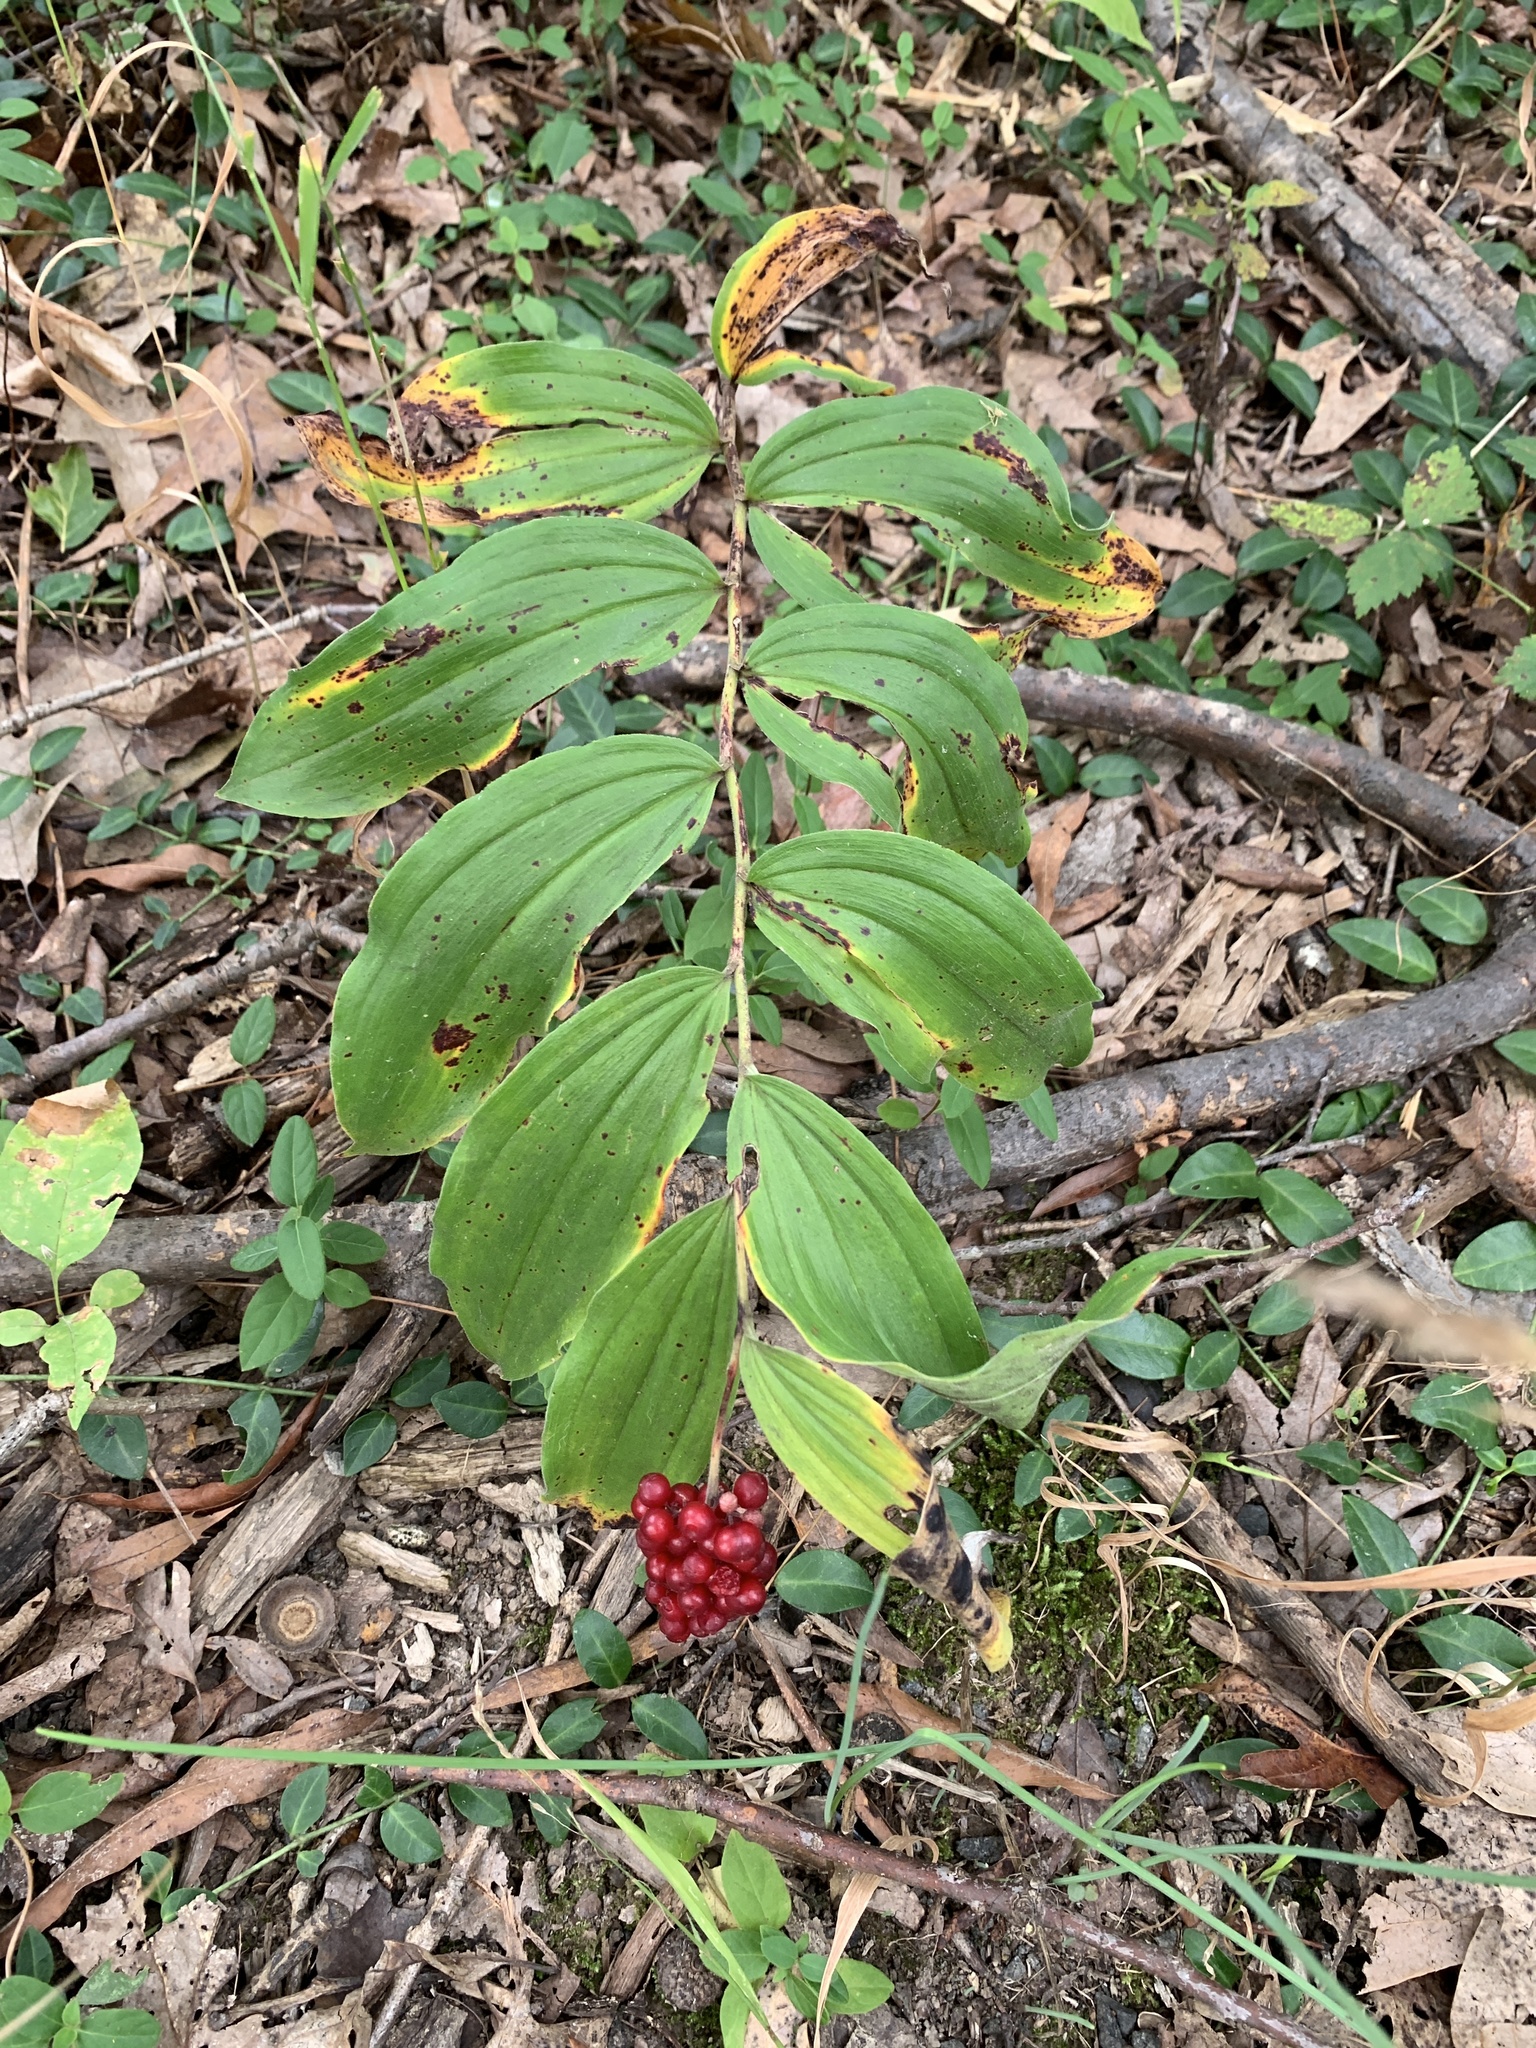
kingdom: Plantae
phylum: Tracheophyta
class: Liliopsida
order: Asparagales
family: Asparagaceae
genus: Maianthemum
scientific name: Maianthemum racemosum
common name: False spikenard
